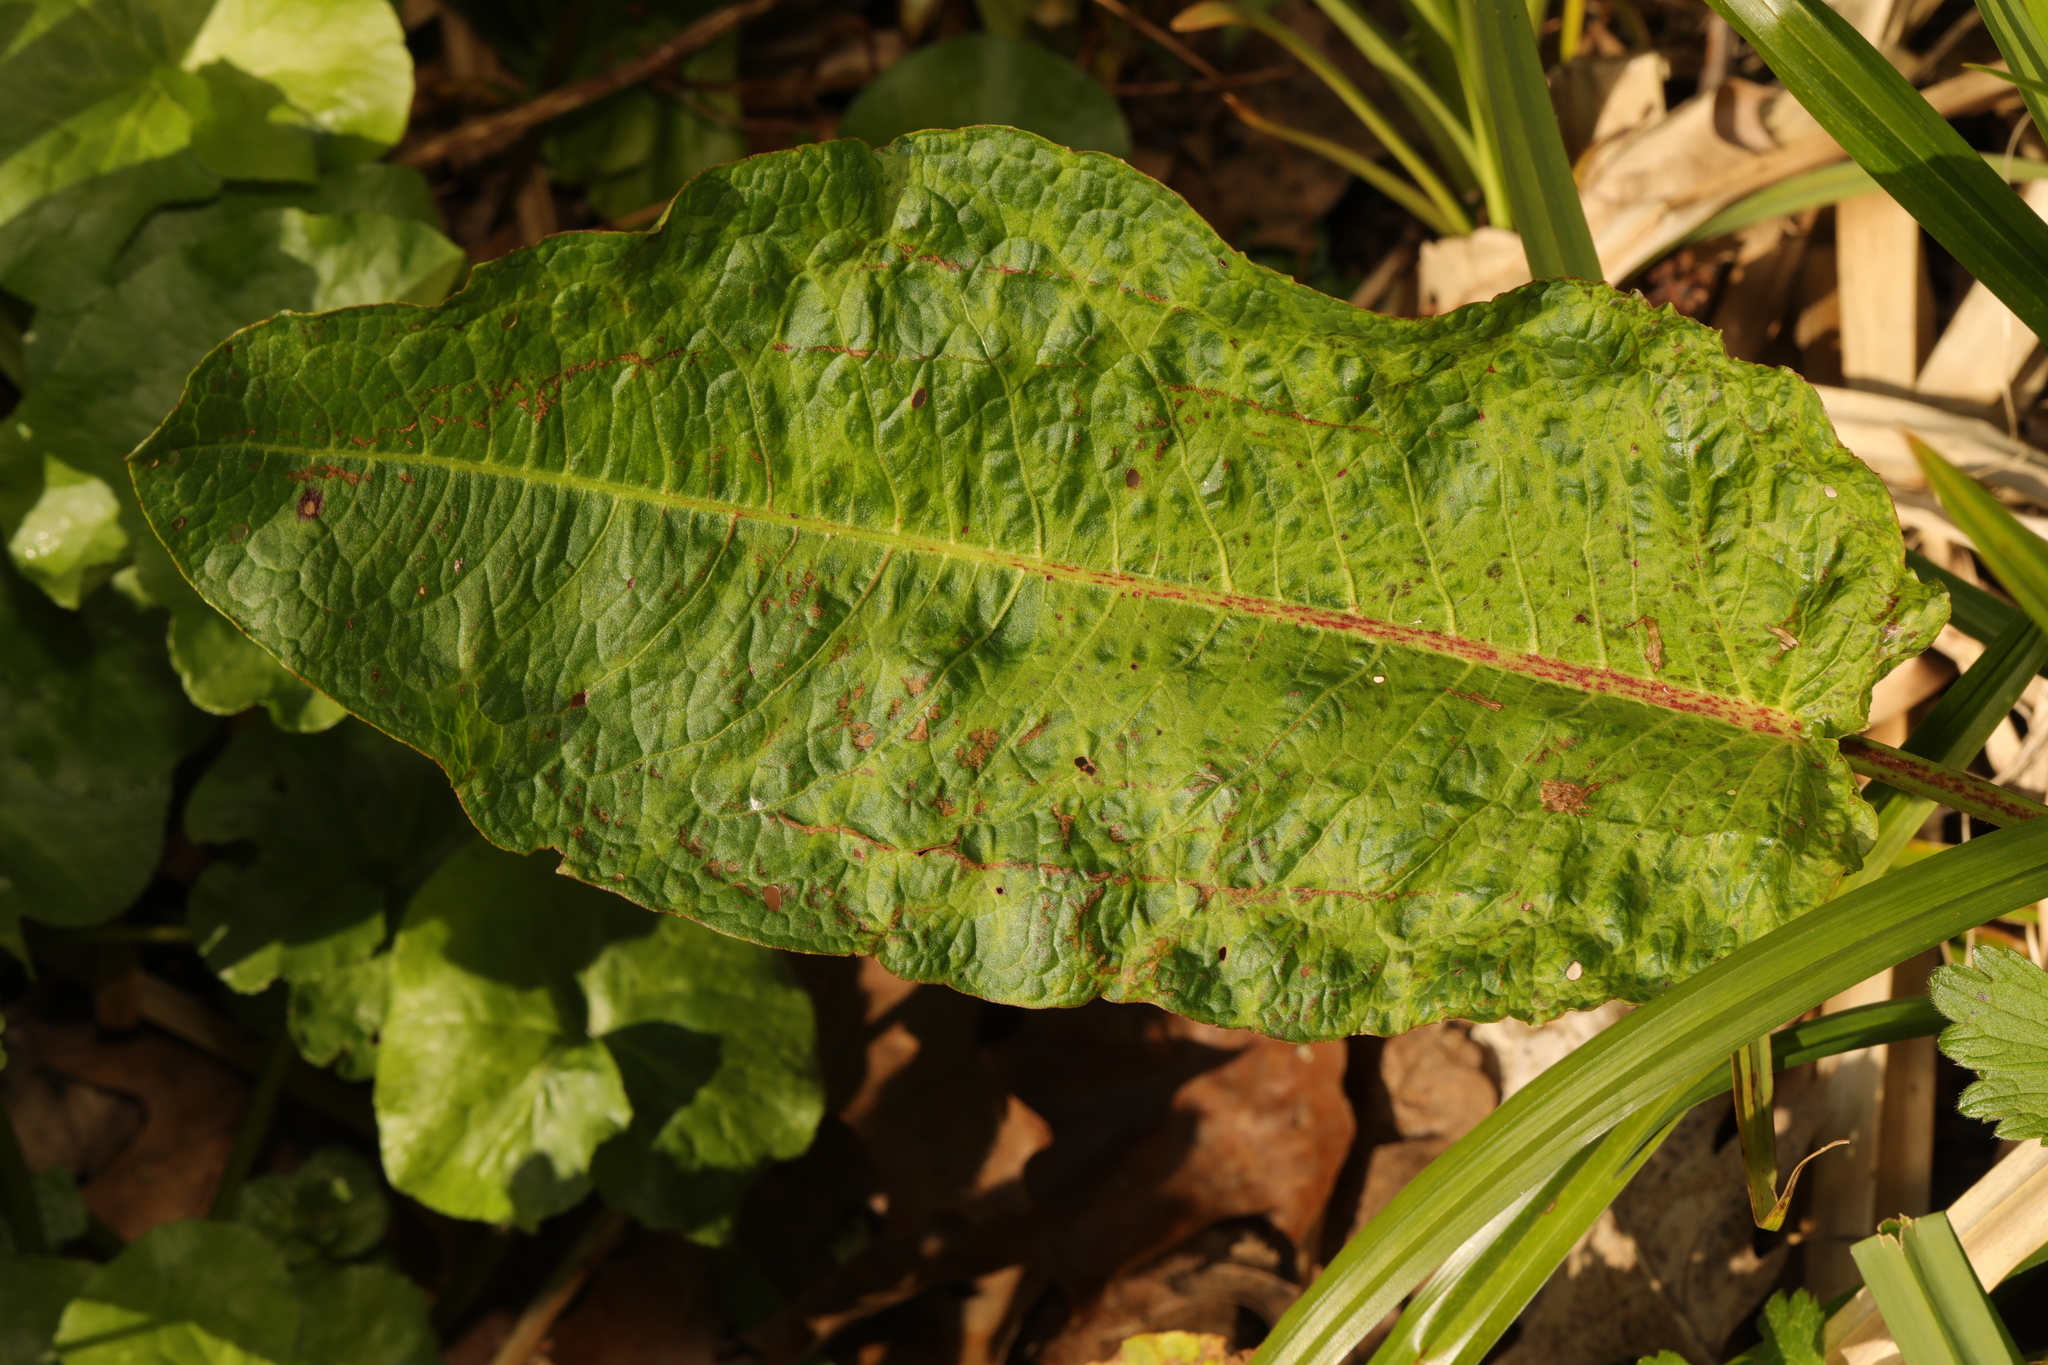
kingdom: Plantae
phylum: Tracheophyta
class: Magnoliopsida
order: Caryophyllales
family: Polygonaceae
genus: Rumex
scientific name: Rumex obtusifolius
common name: Bitter dock
